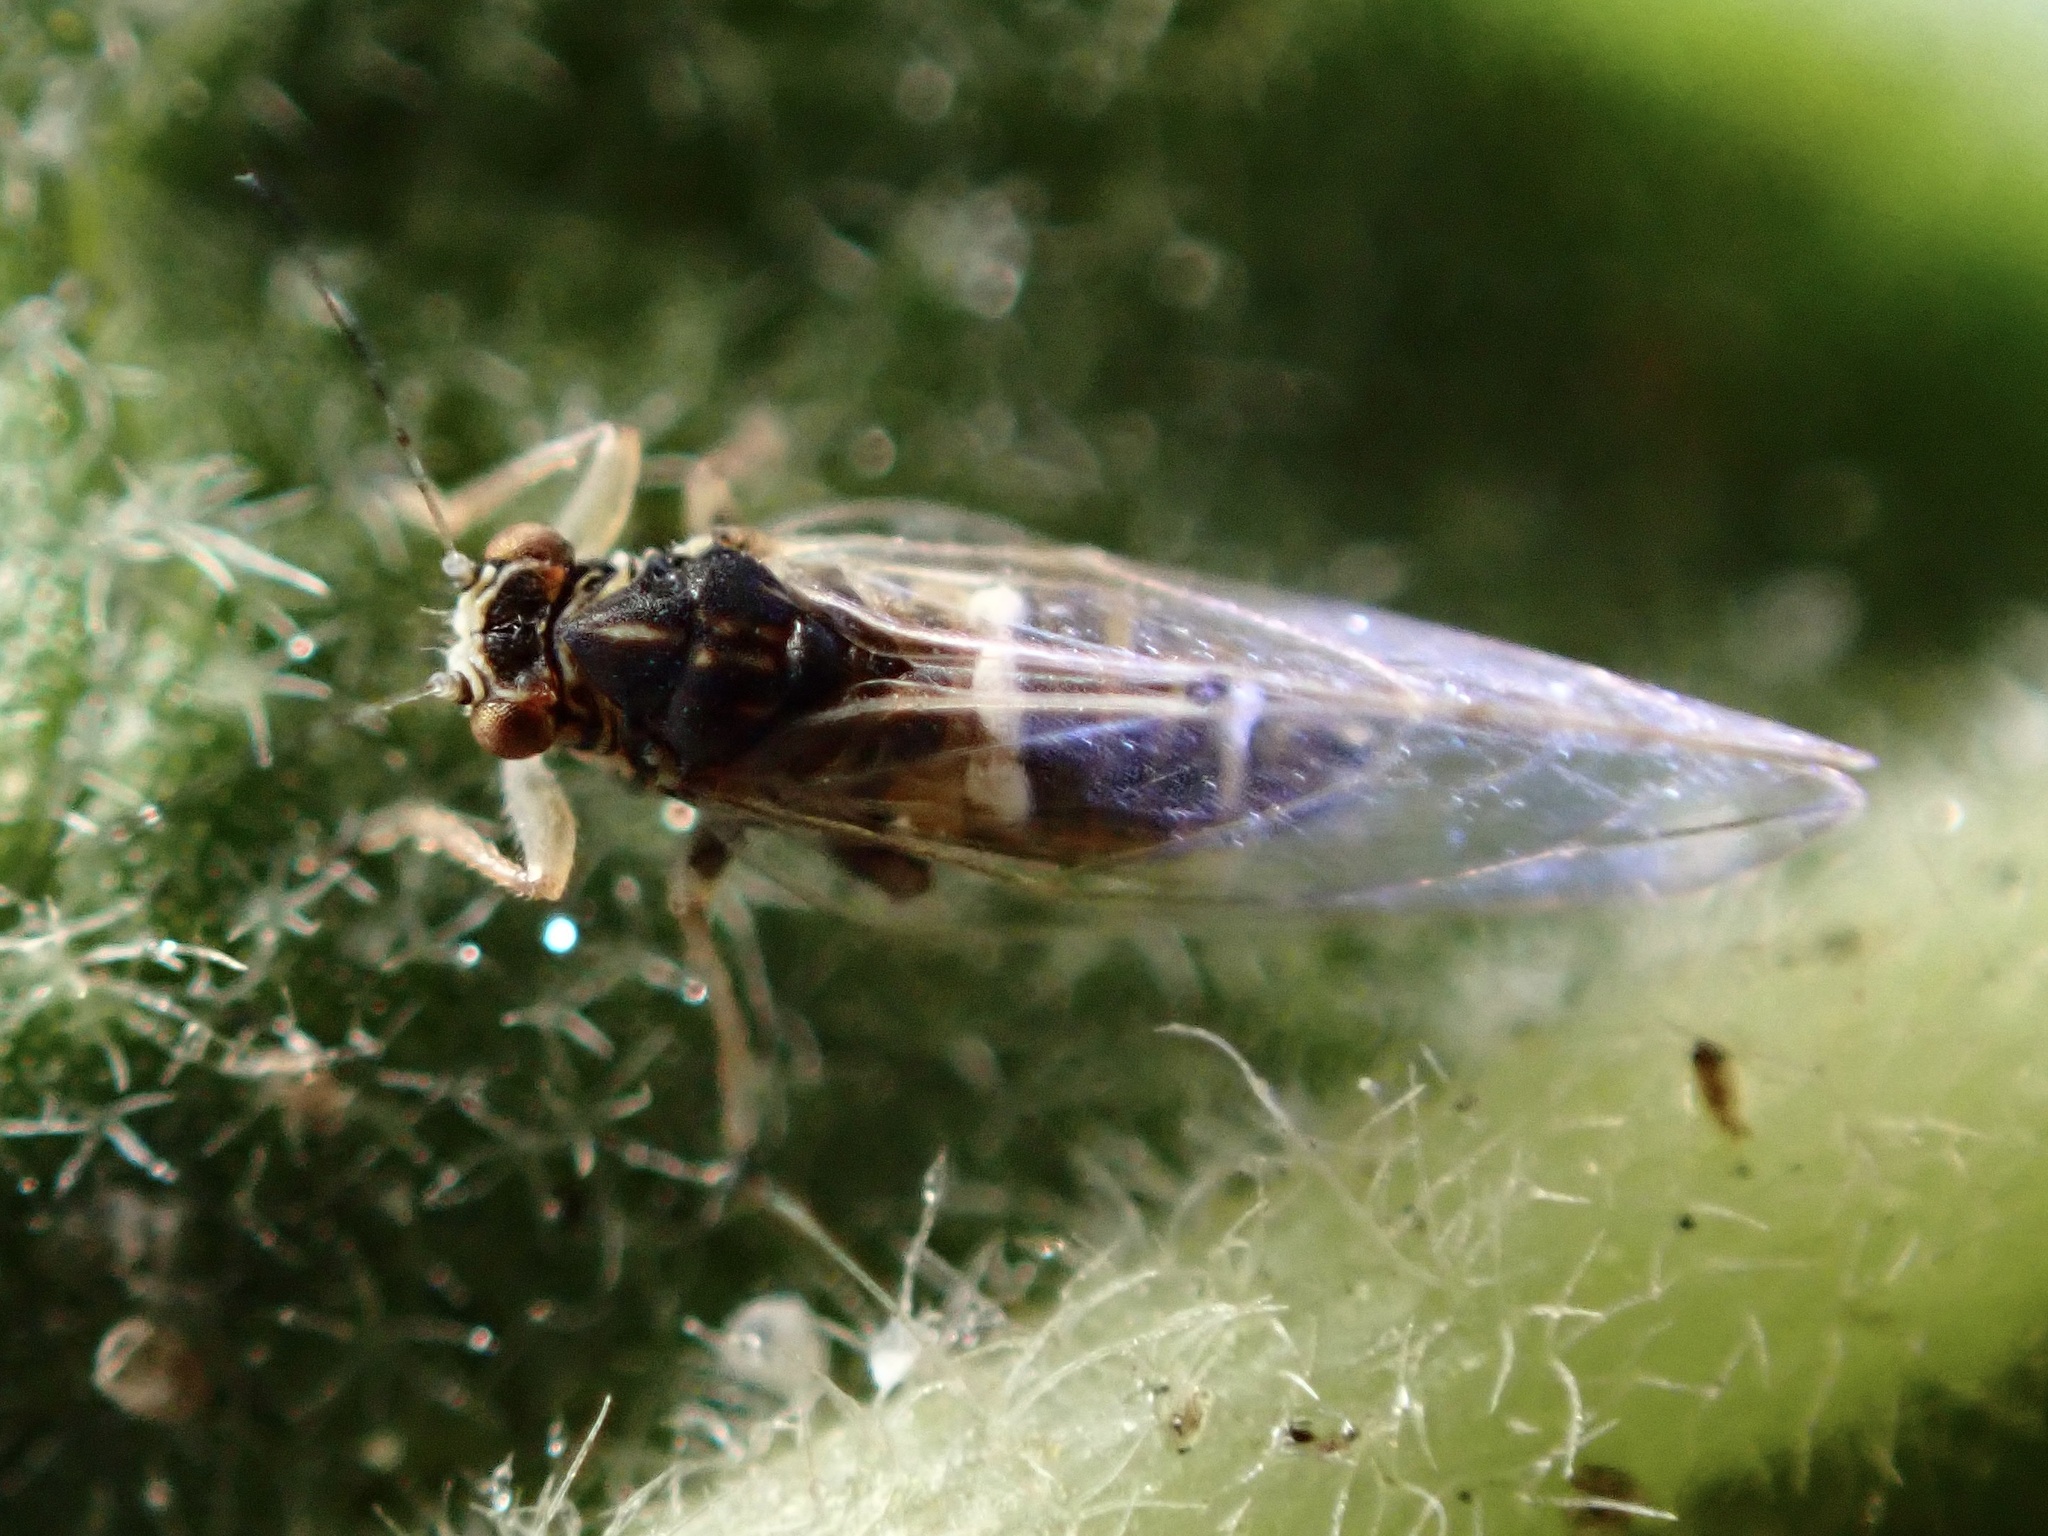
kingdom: Animalia
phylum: Arthropoda
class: Insecta
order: Hemiptera
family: Triozidae
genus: Bactericera
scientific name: Bactericera lavaterae
